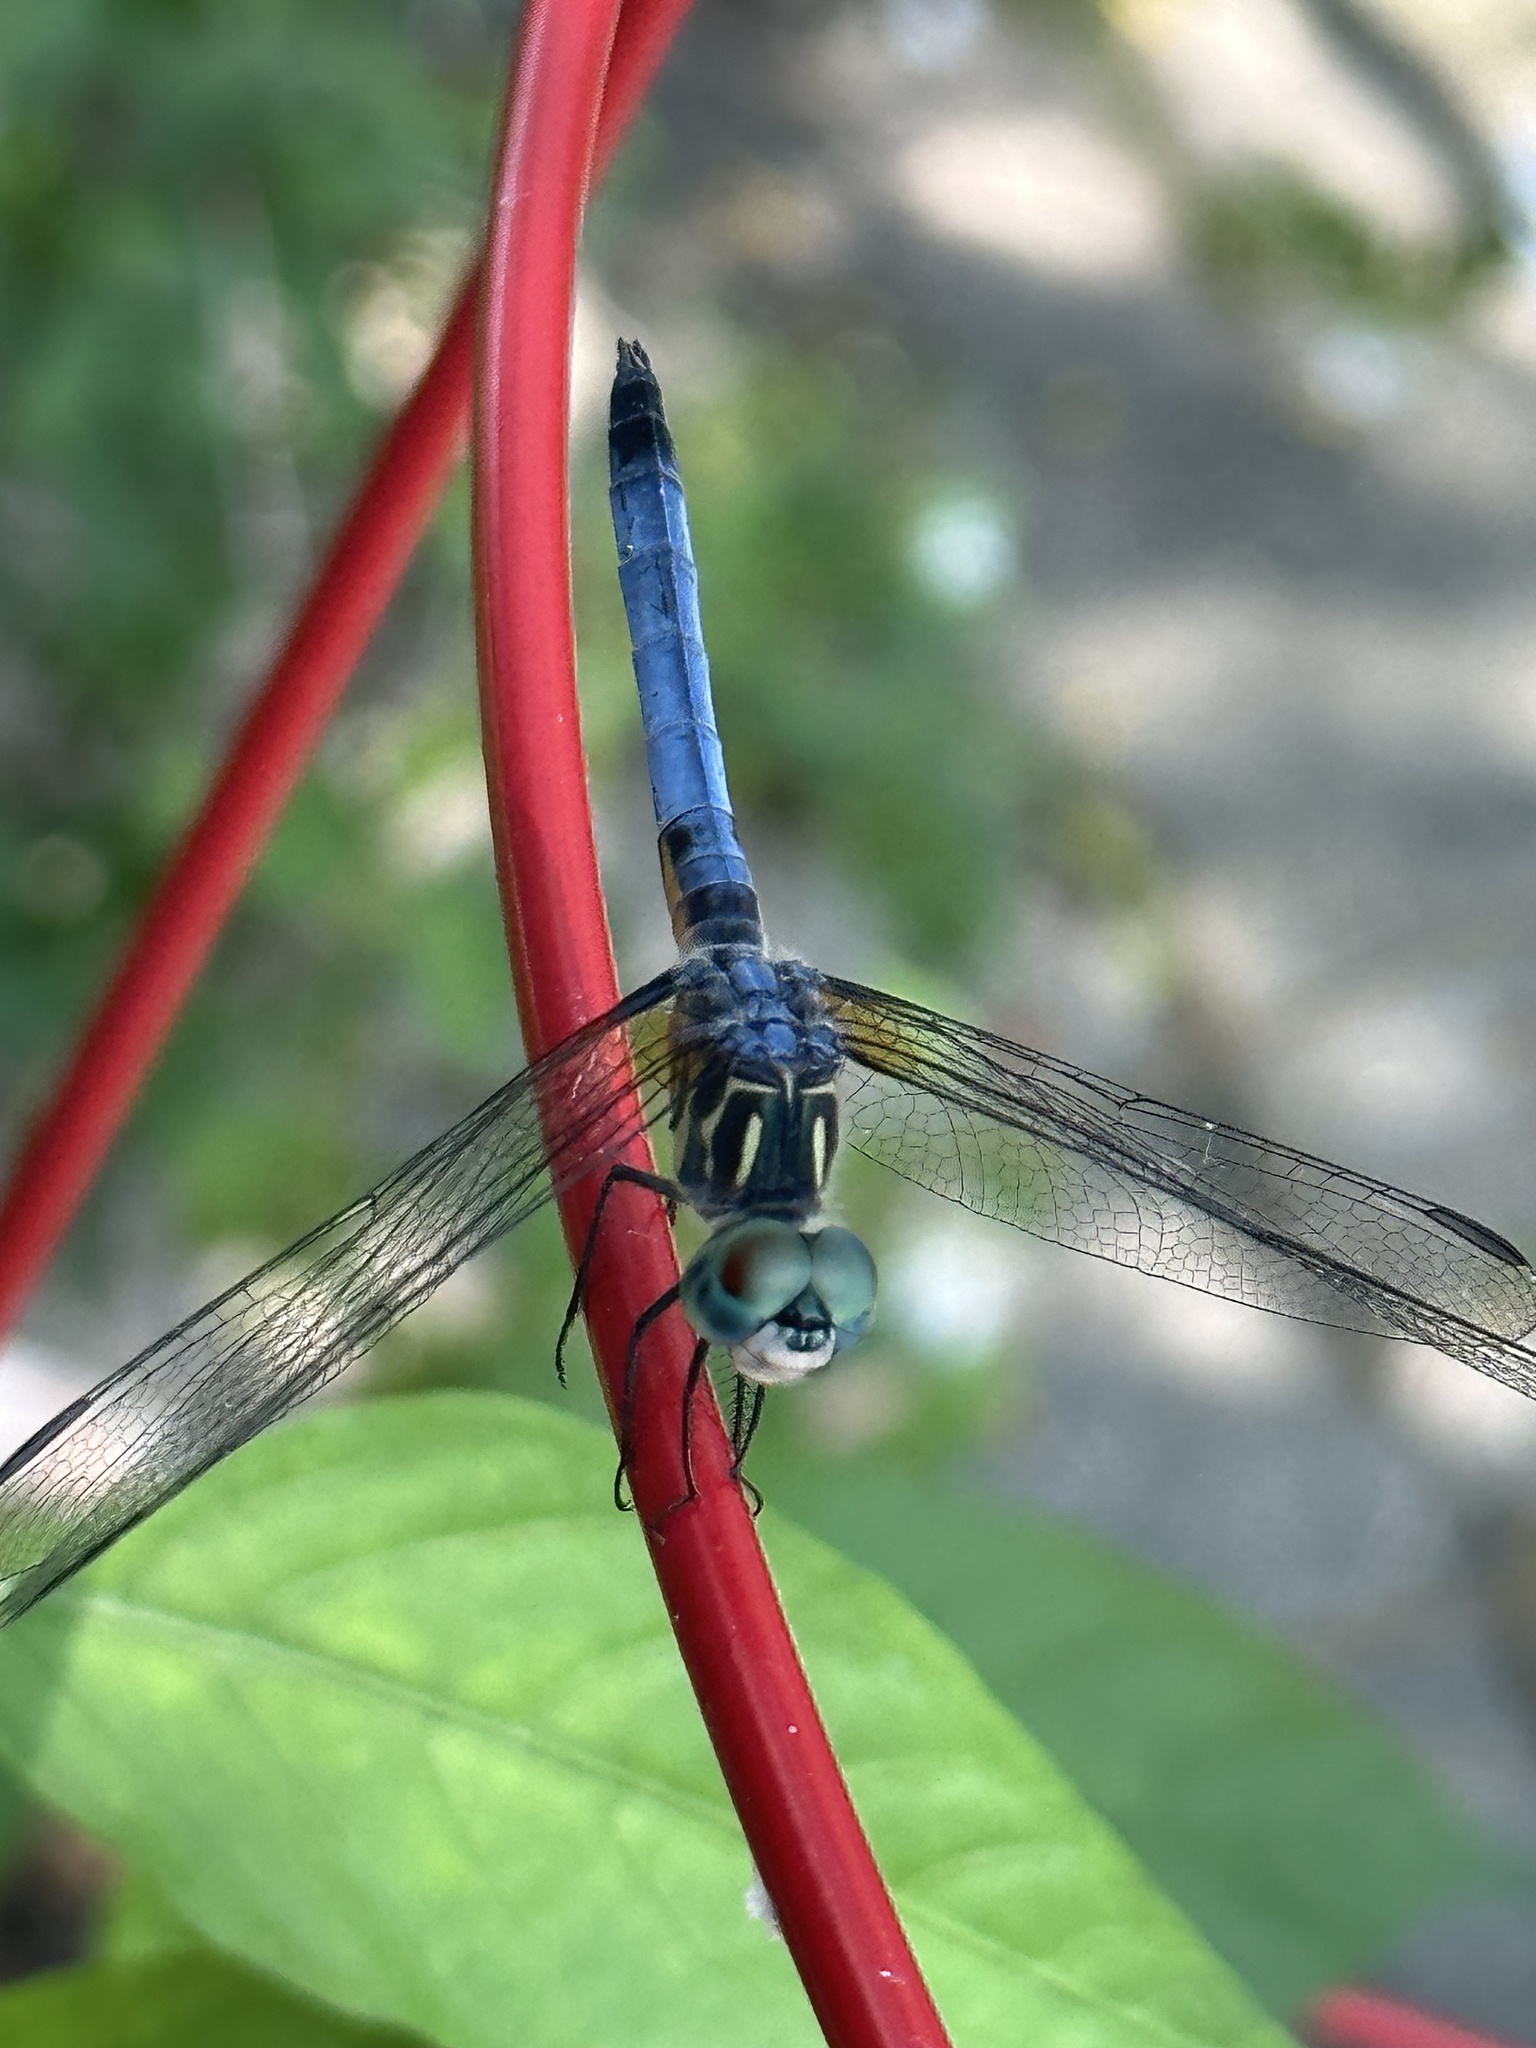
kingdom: Animalia
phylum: Arthropoda
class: Insecta
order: Odonata
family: Libellulidae
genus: Pachydiplax
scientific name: Pachydiplax longipennis
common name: Blue dasher
